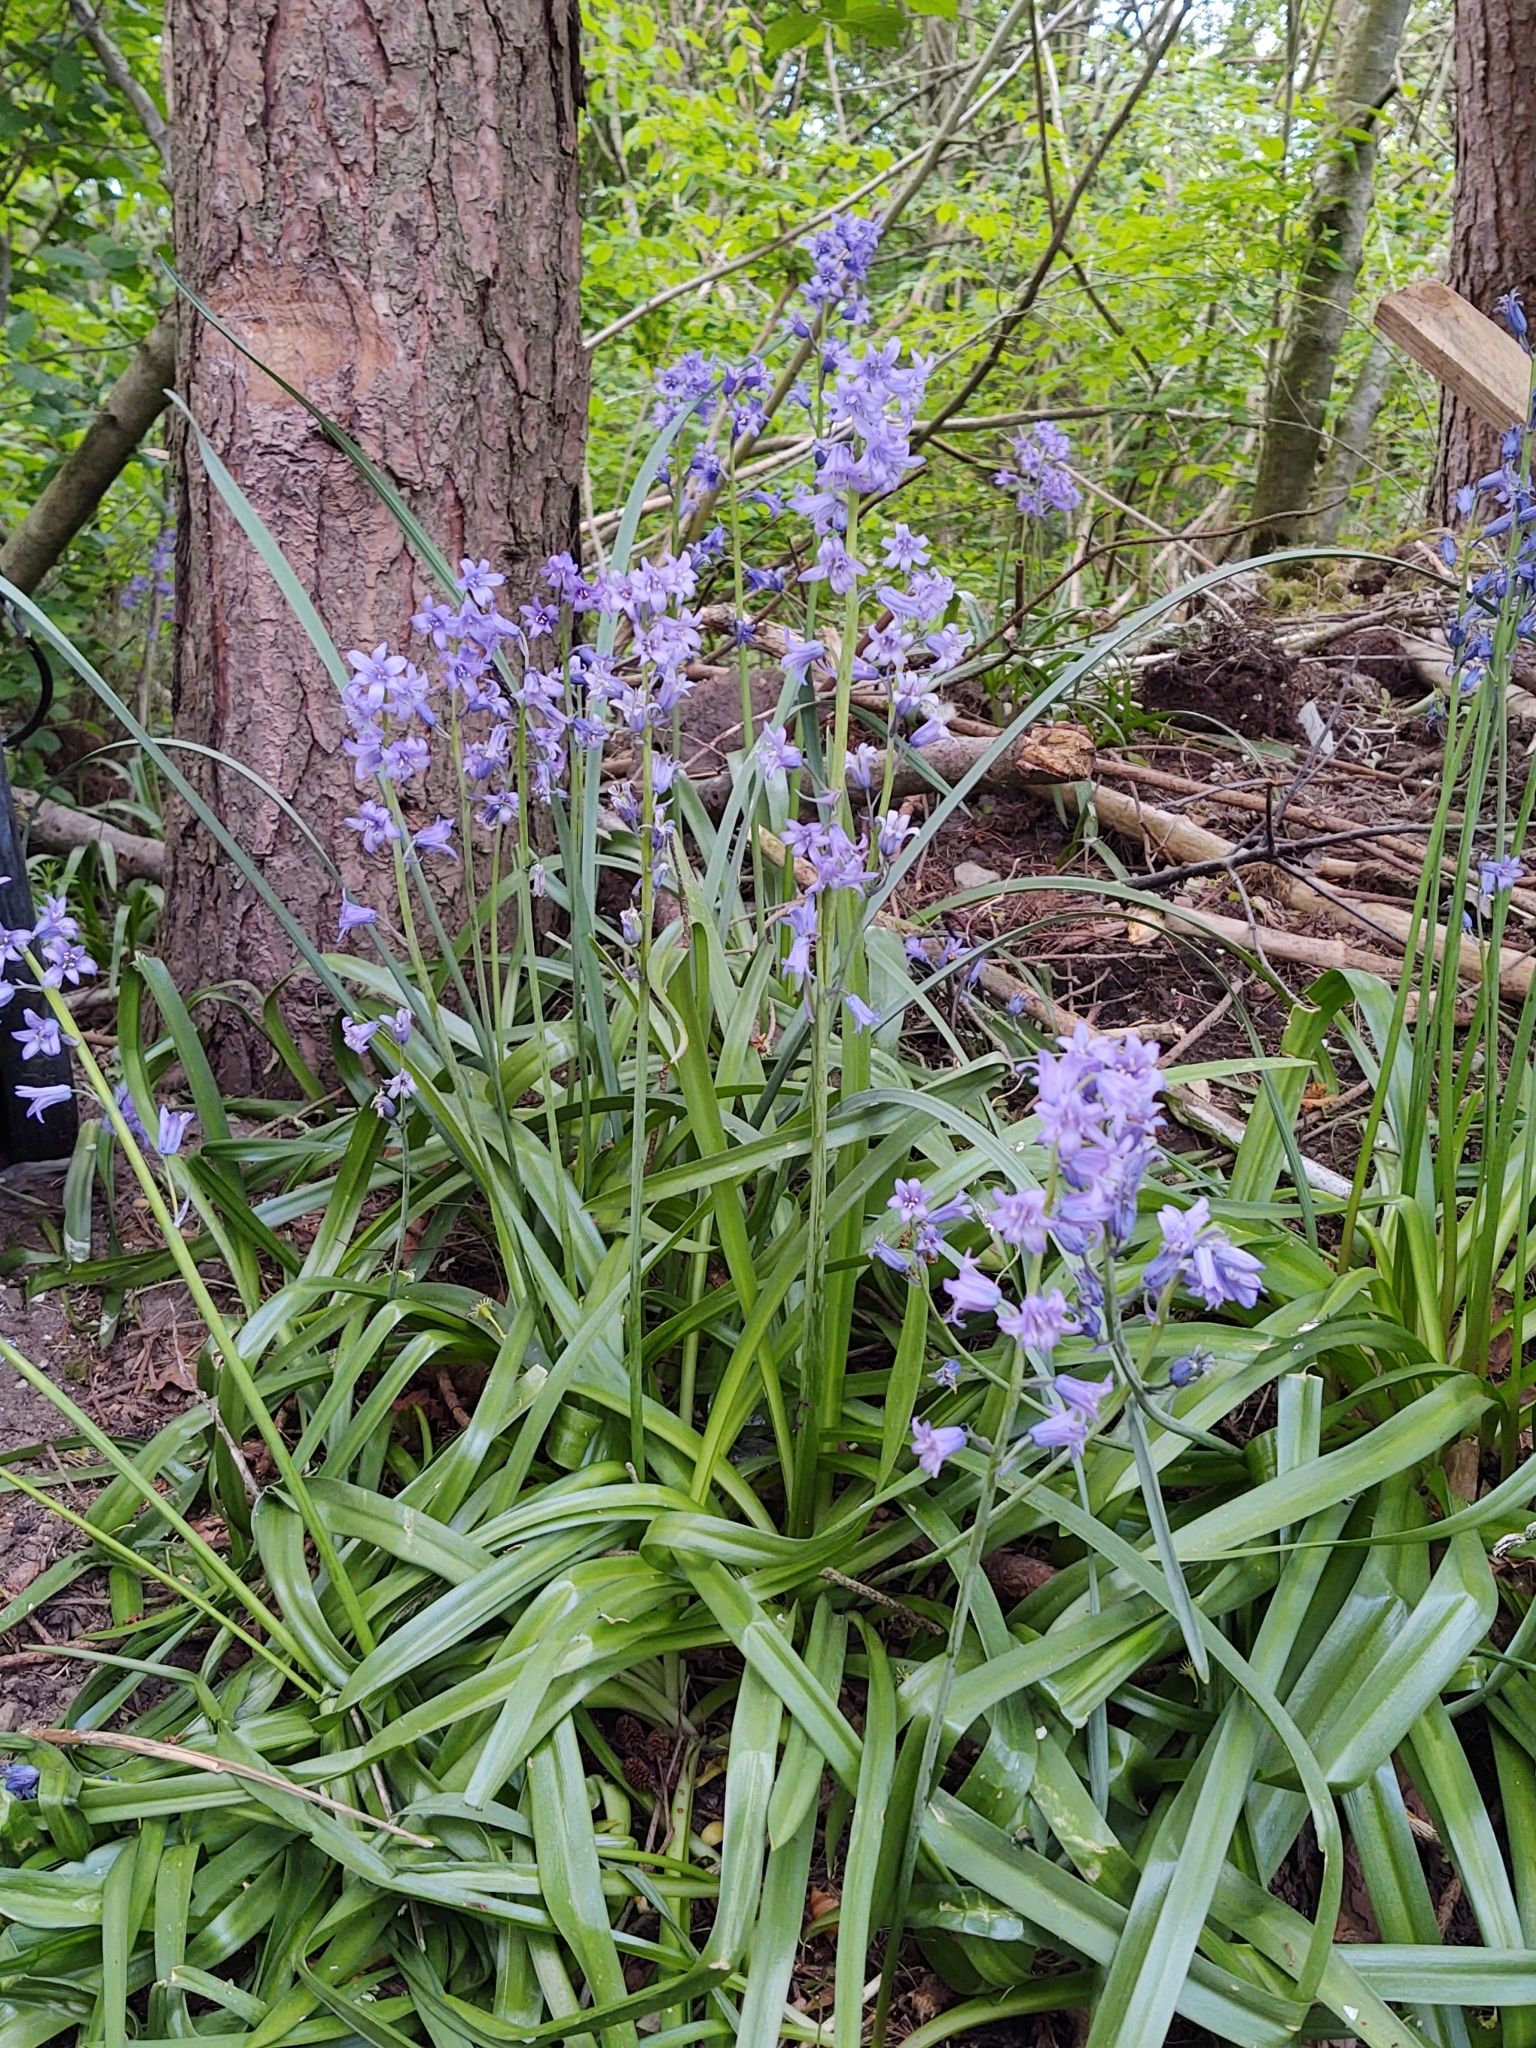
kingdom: Plantae
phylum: Tracheophyta
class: Liliopsida
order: Asparagales
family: Asparagaceae
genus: Hyacinthoides
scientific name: Hyacinthoides massartiana
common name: Hyacinthoides
